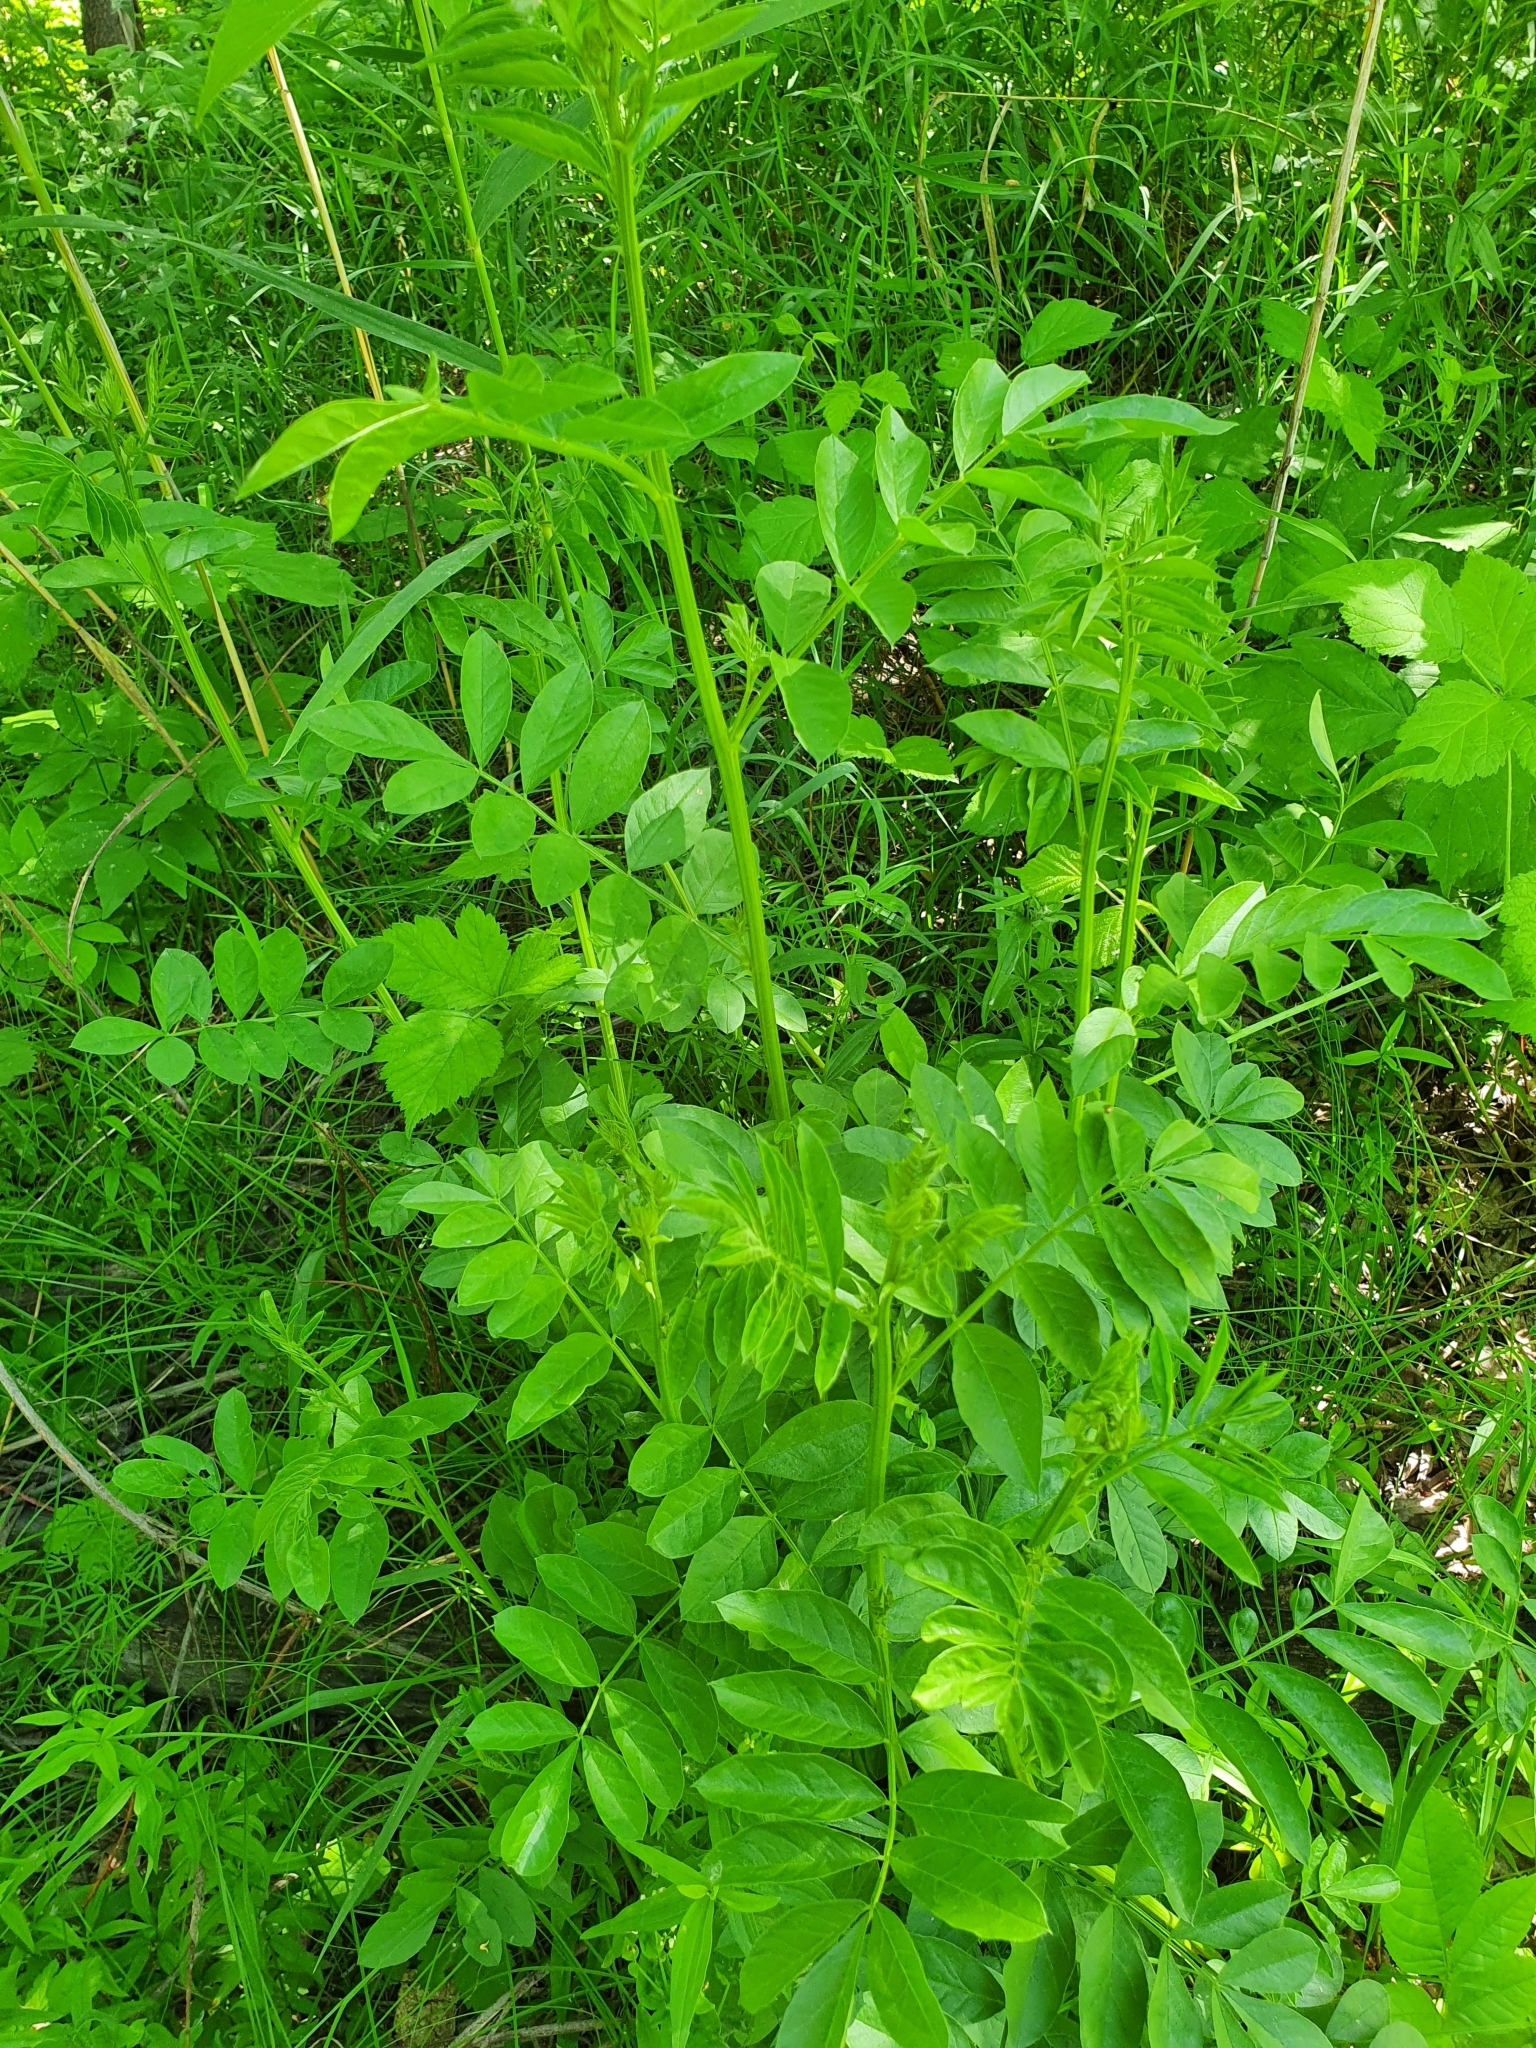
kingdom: Plantae
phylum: Tracheophyta
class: Magnoliopsida
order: Fabales
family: Fabaceae
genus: Glycyrrhiza
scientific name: Glycyrrhiza echinata
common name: German liquorice
